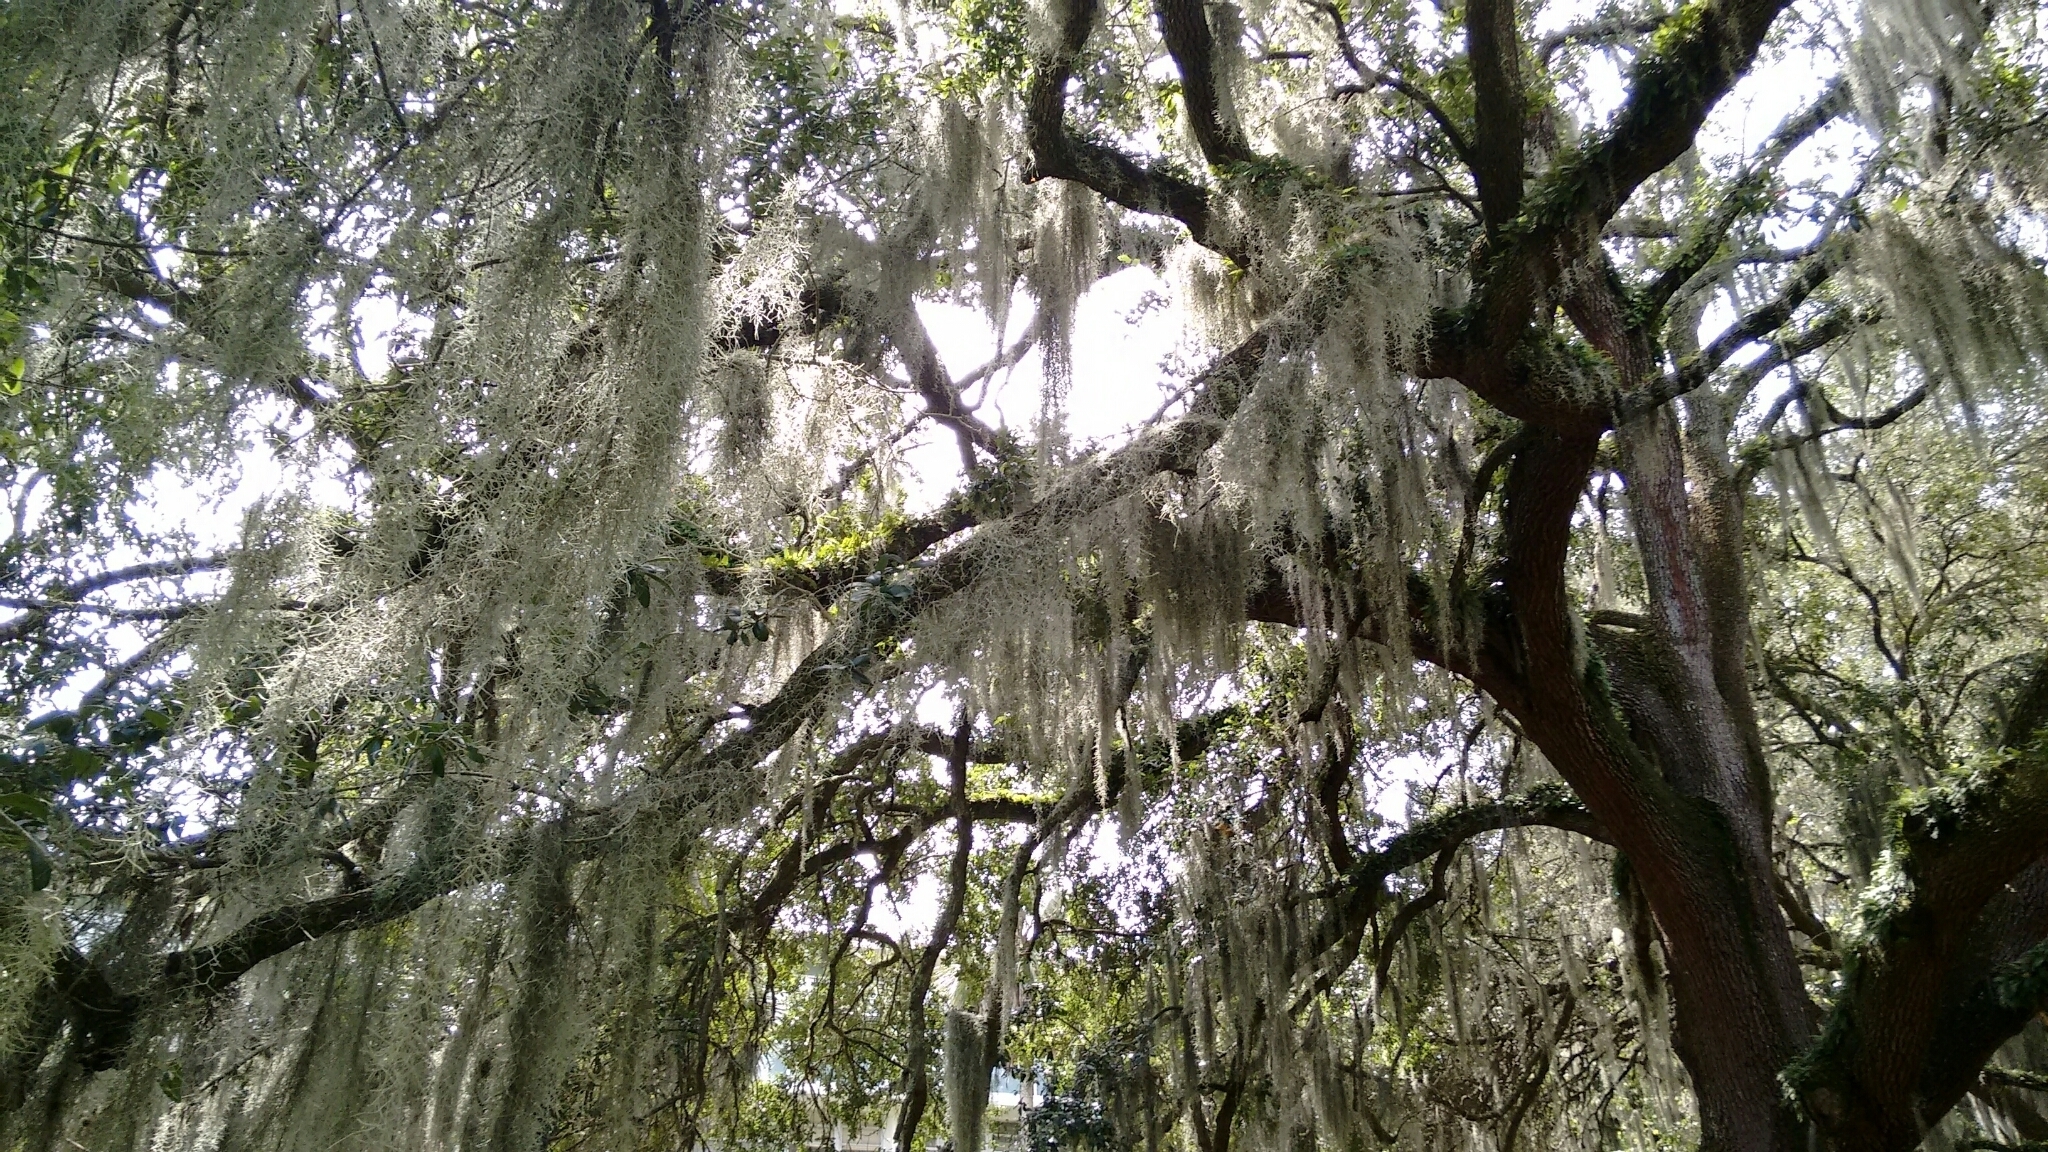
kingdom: Plantae
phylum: Tracheophyta
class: Liliopsida
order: Poales
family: Bromeliaceae
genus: Tillandsia
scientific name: Tillandsia usneoides
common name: Spanish moss
